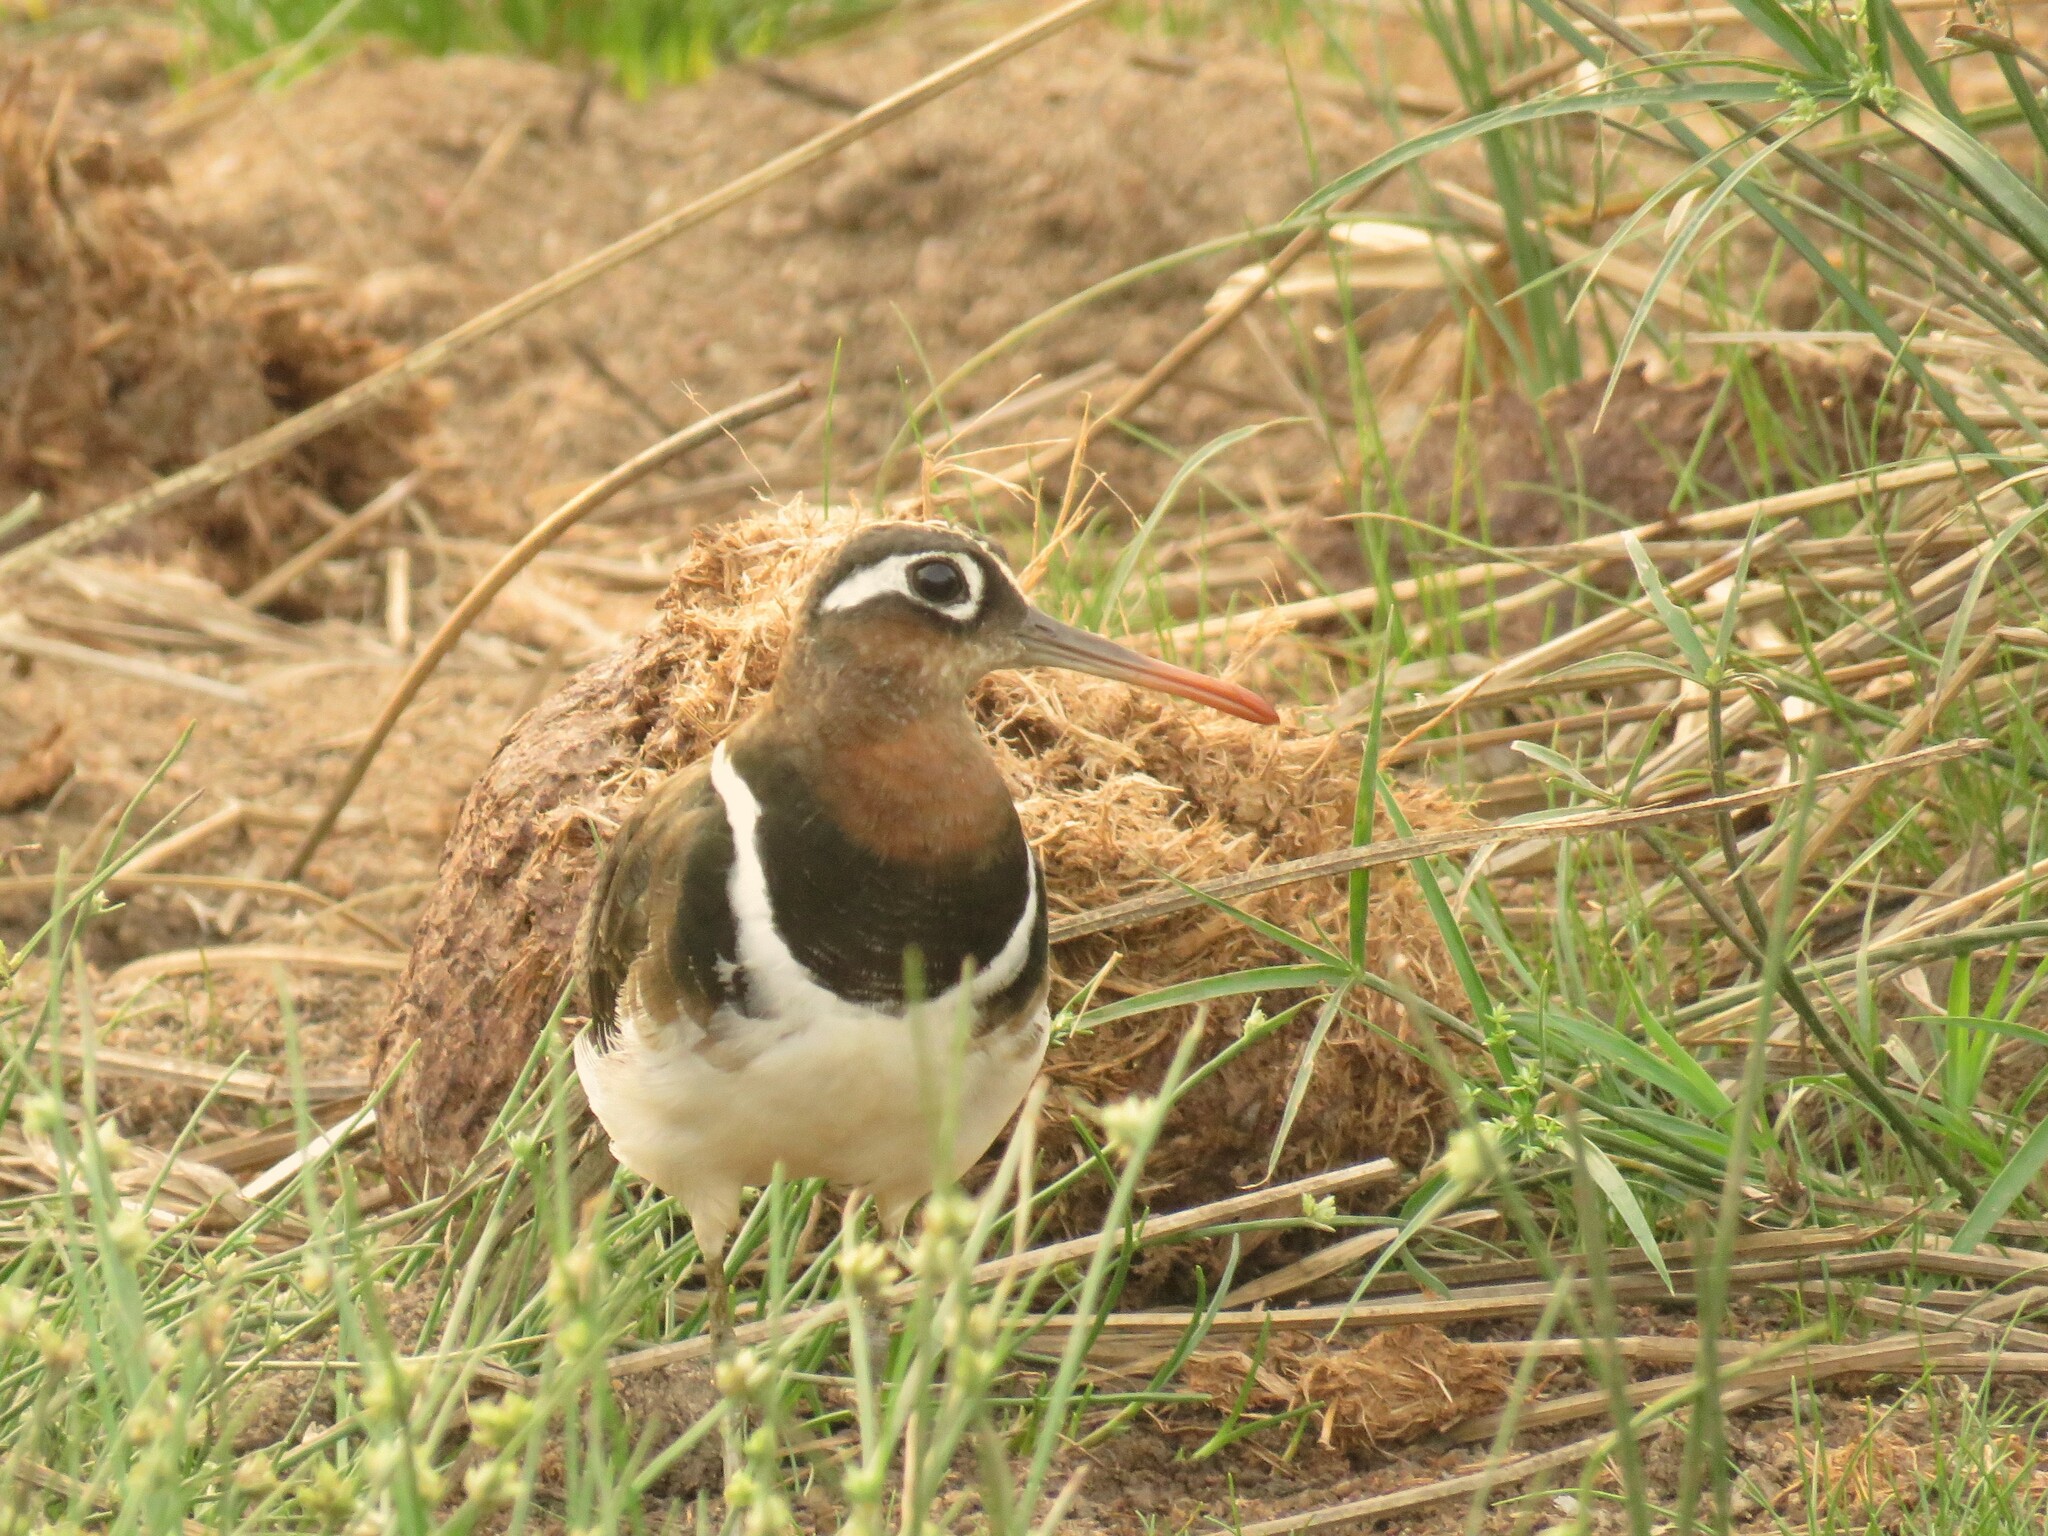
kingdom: Animalia
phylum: Chordata
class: Aves
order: Charadriiformes
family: Rostratulidae
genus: Rostratula
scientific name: Rostratula benghalensis
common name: Greater painted-snipe
